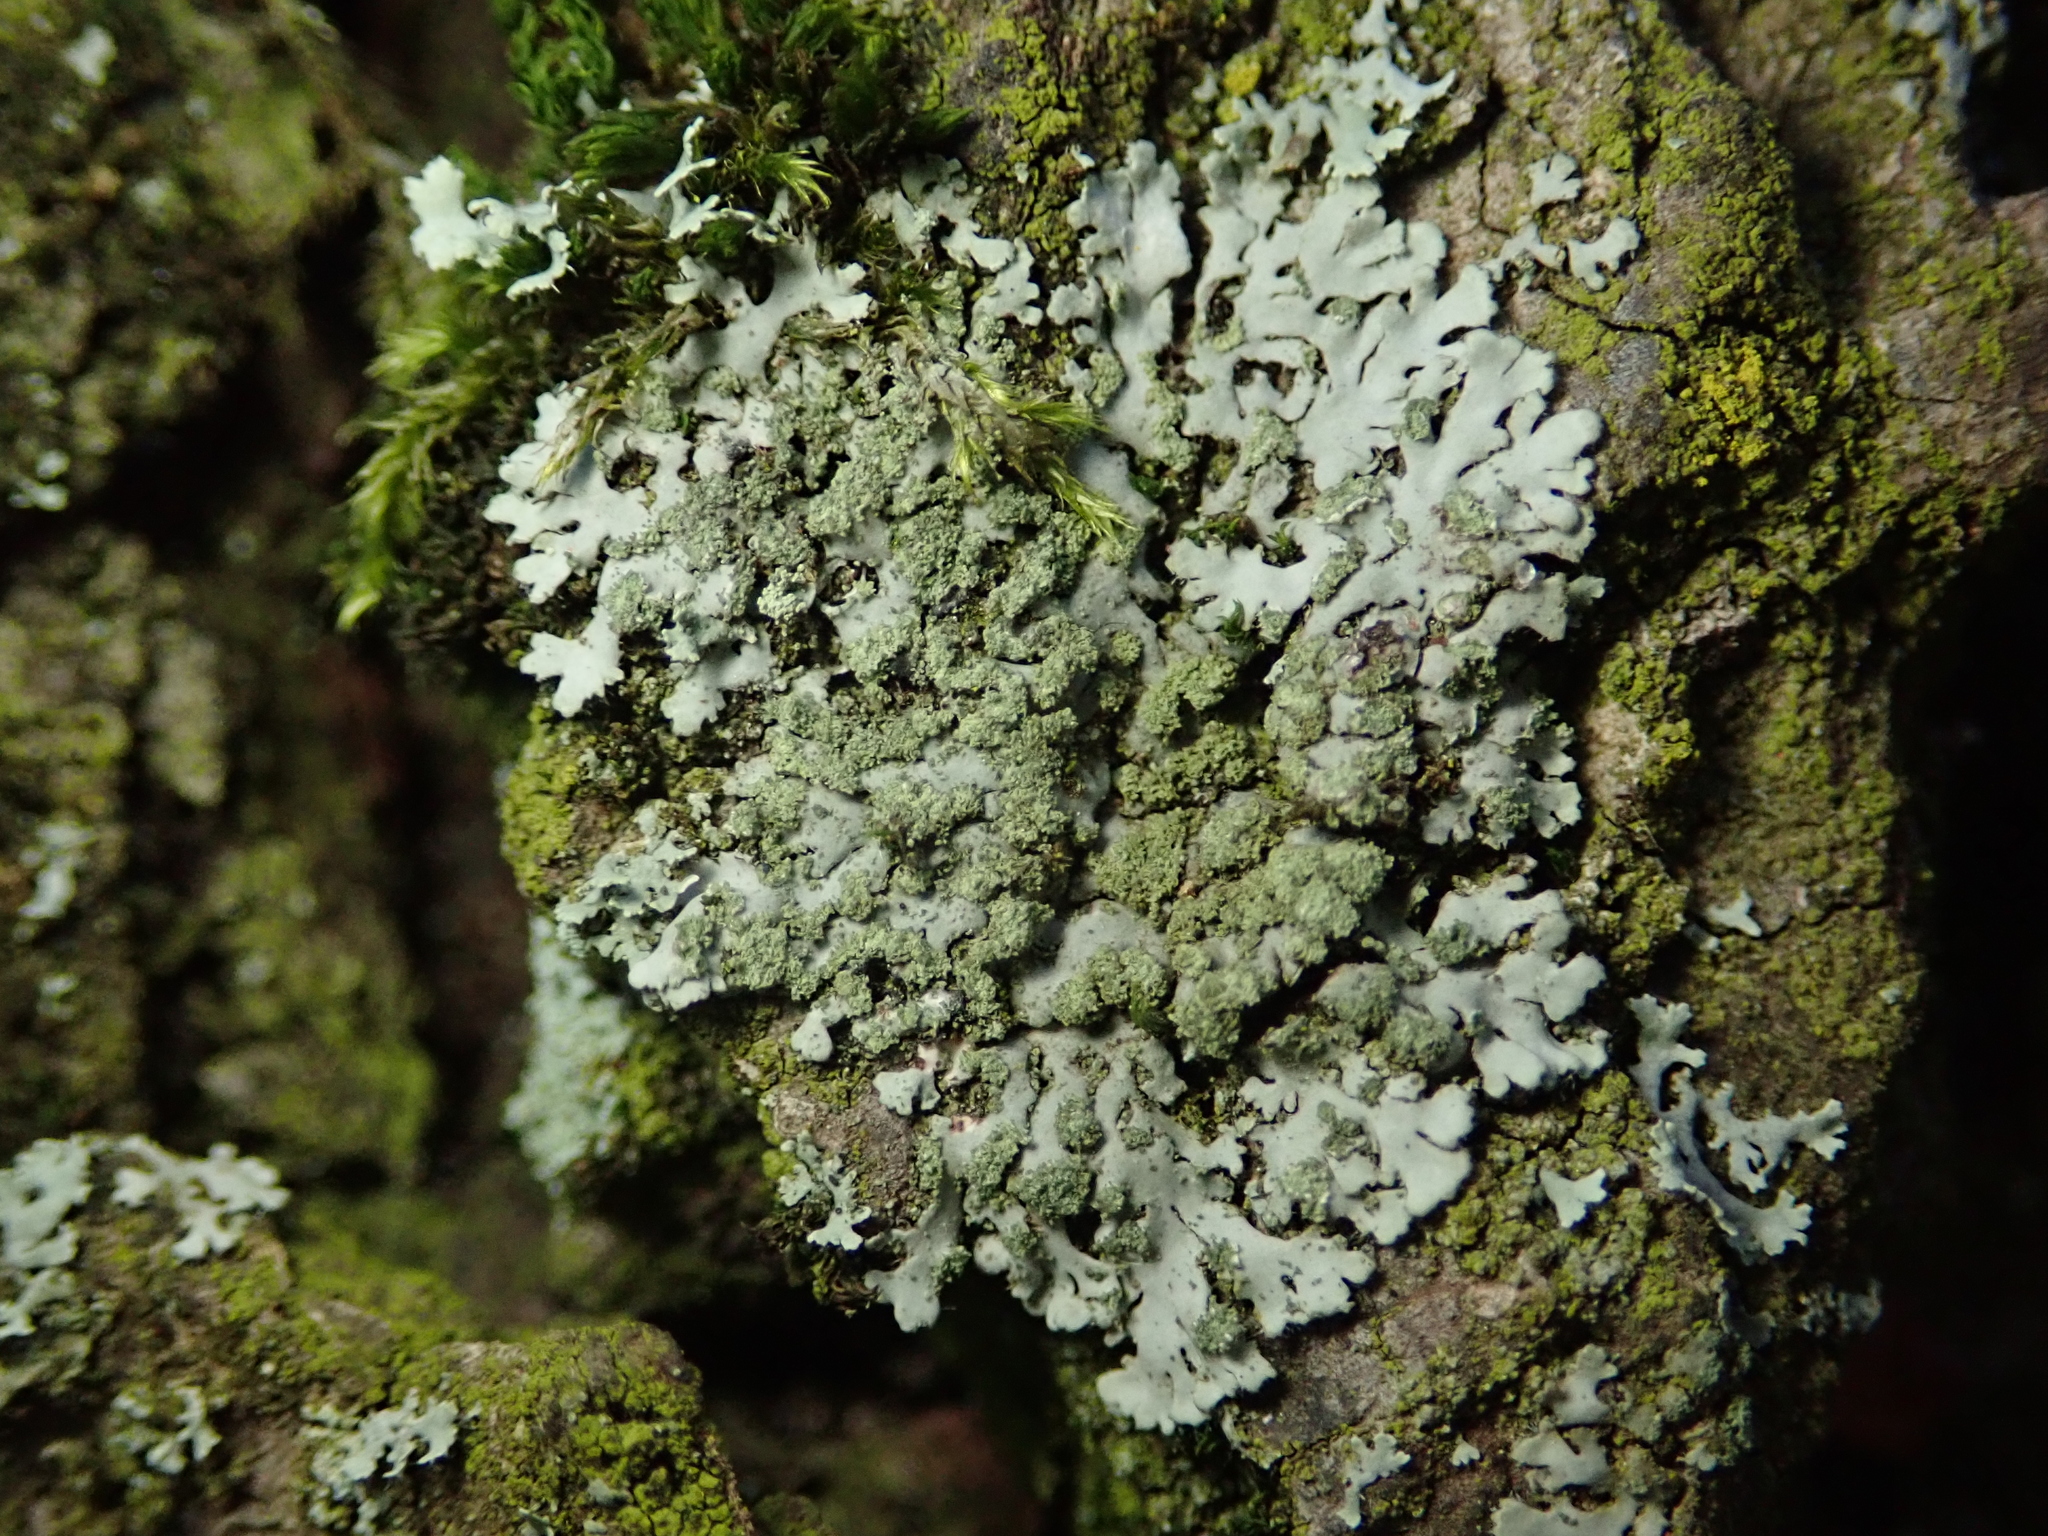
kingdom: Fungi
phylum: Ascomycota
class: Lecanoromycetes
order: Caliciales
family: Physciaceae
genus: Phaeophyscia
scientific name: Phaeophyscia orbicularis
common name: Mealy shadow lichen
